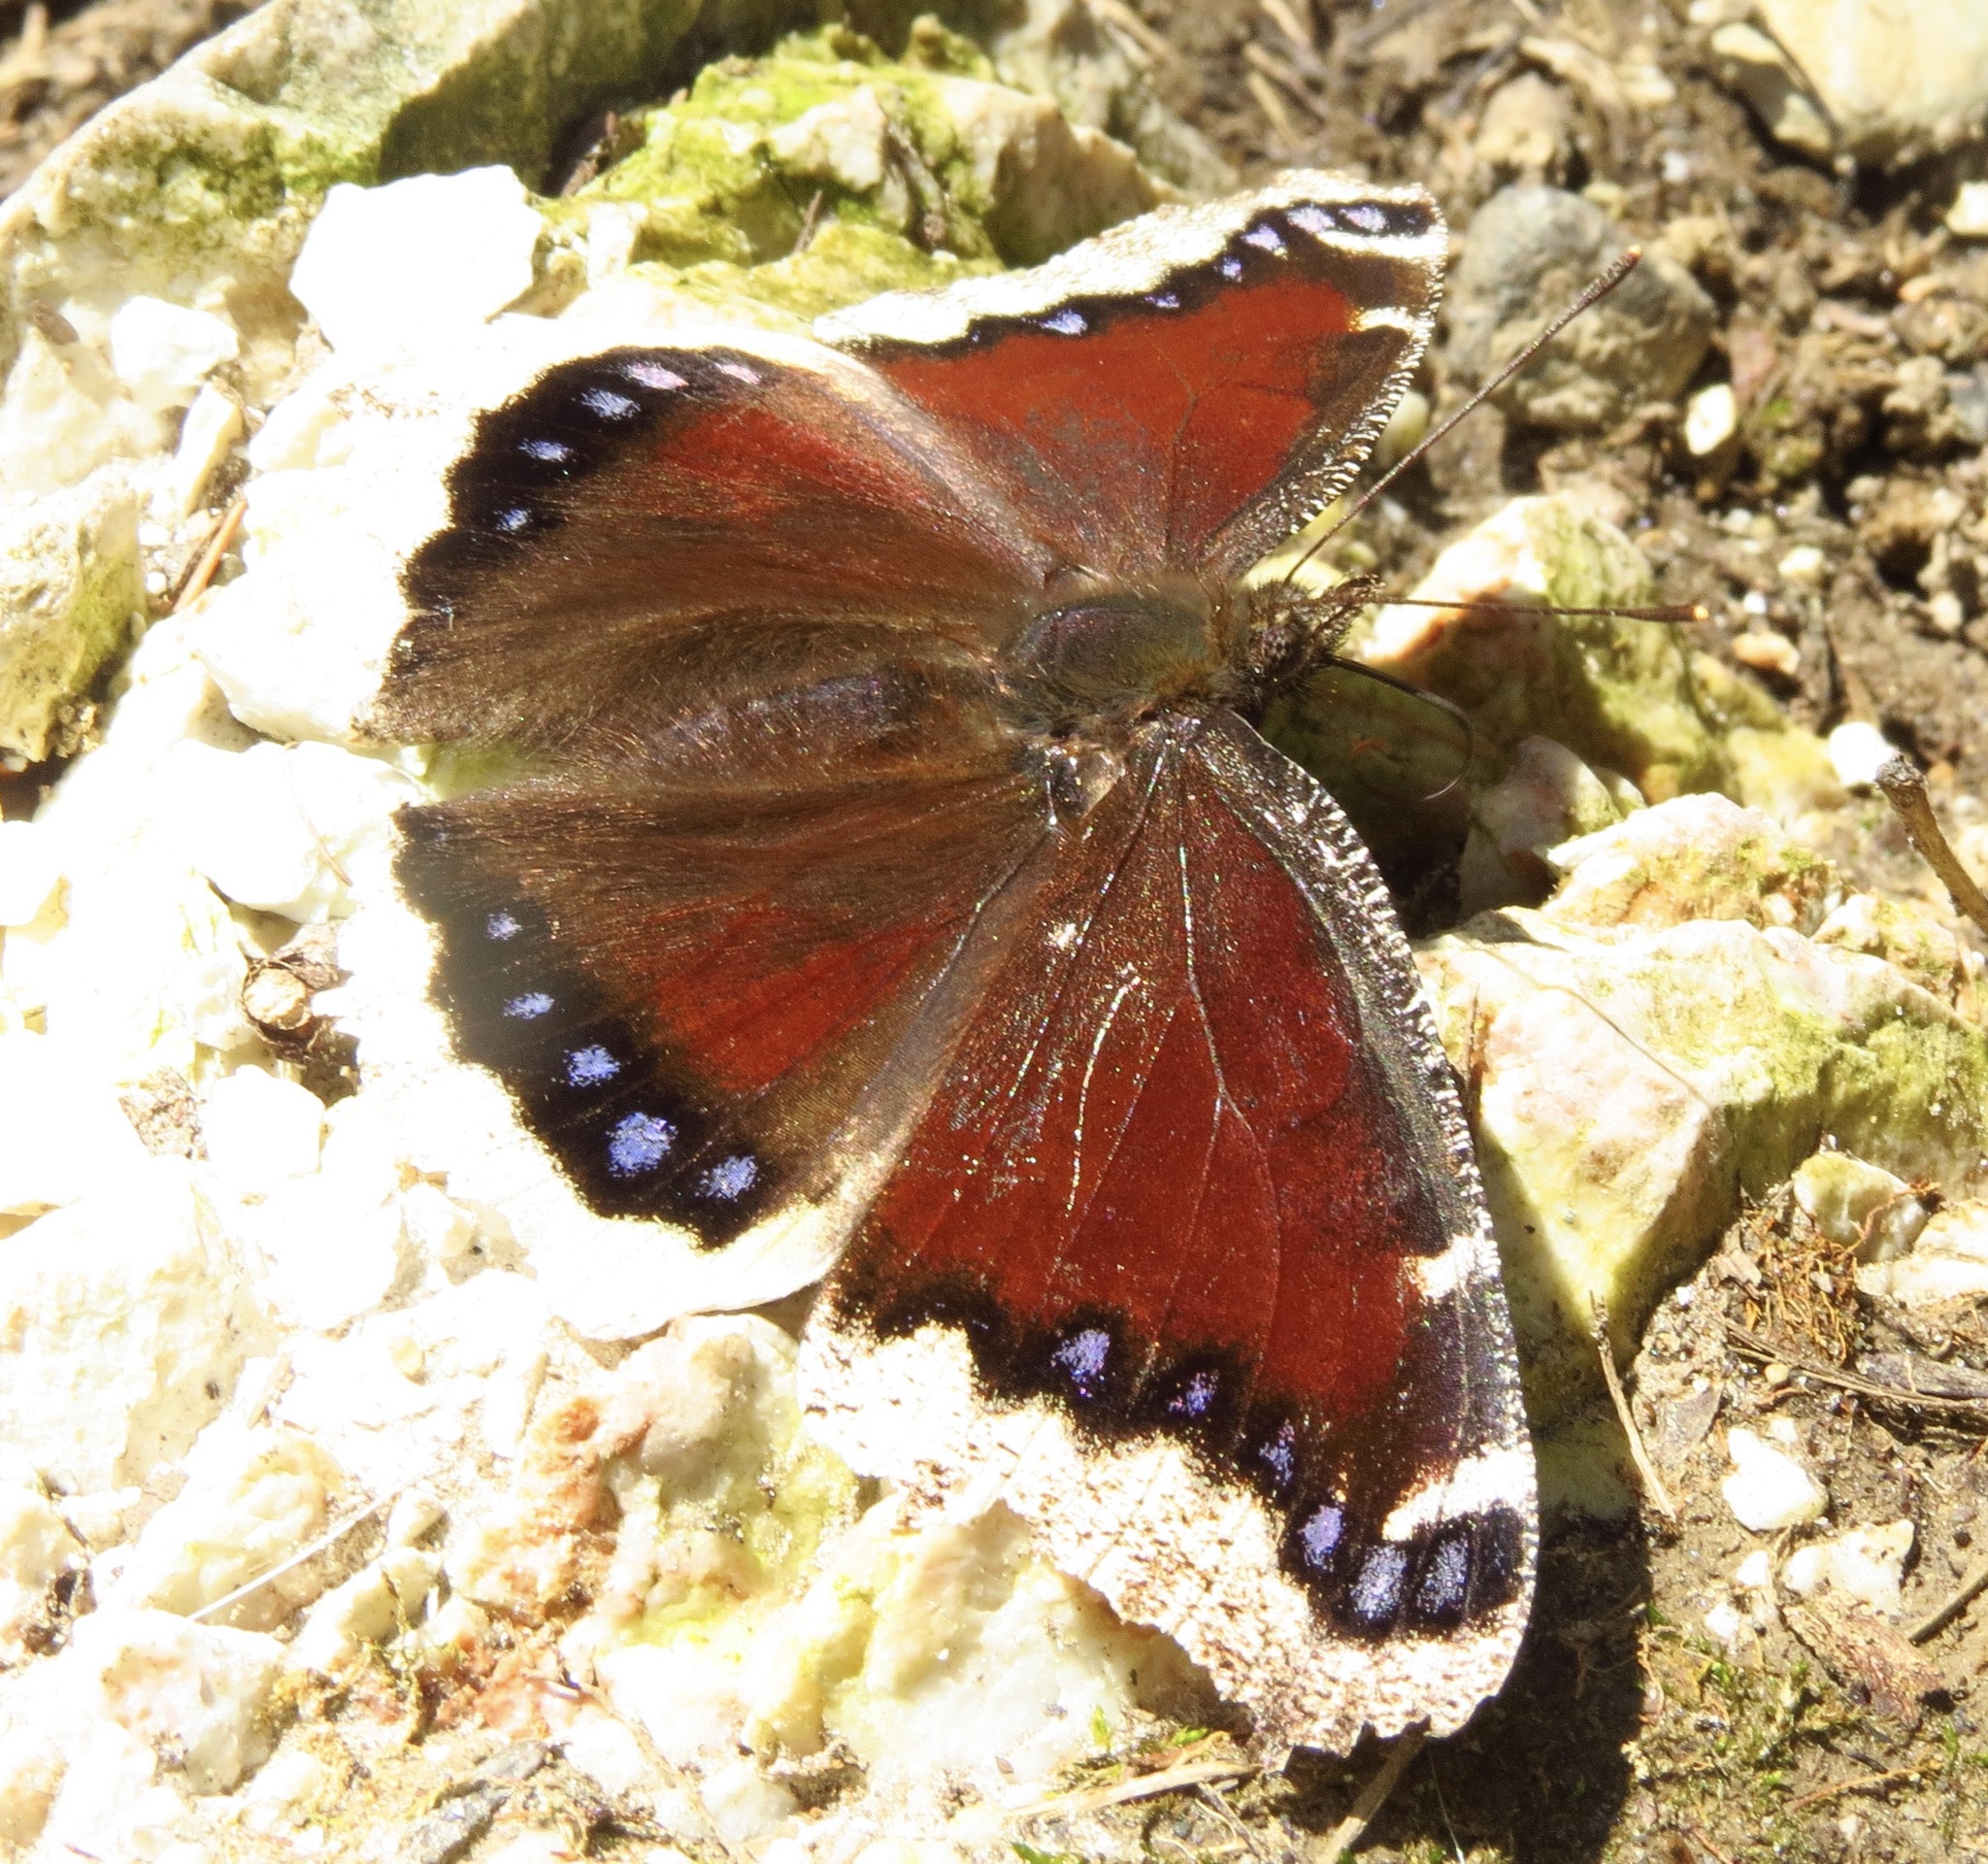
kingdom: Animalia
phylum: Arthropoda
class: Insecta
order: Lepidoptera
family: Nymphalidae
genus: Nymphalis
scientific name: Nymphalis antiopa
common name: Camberwell beauty
